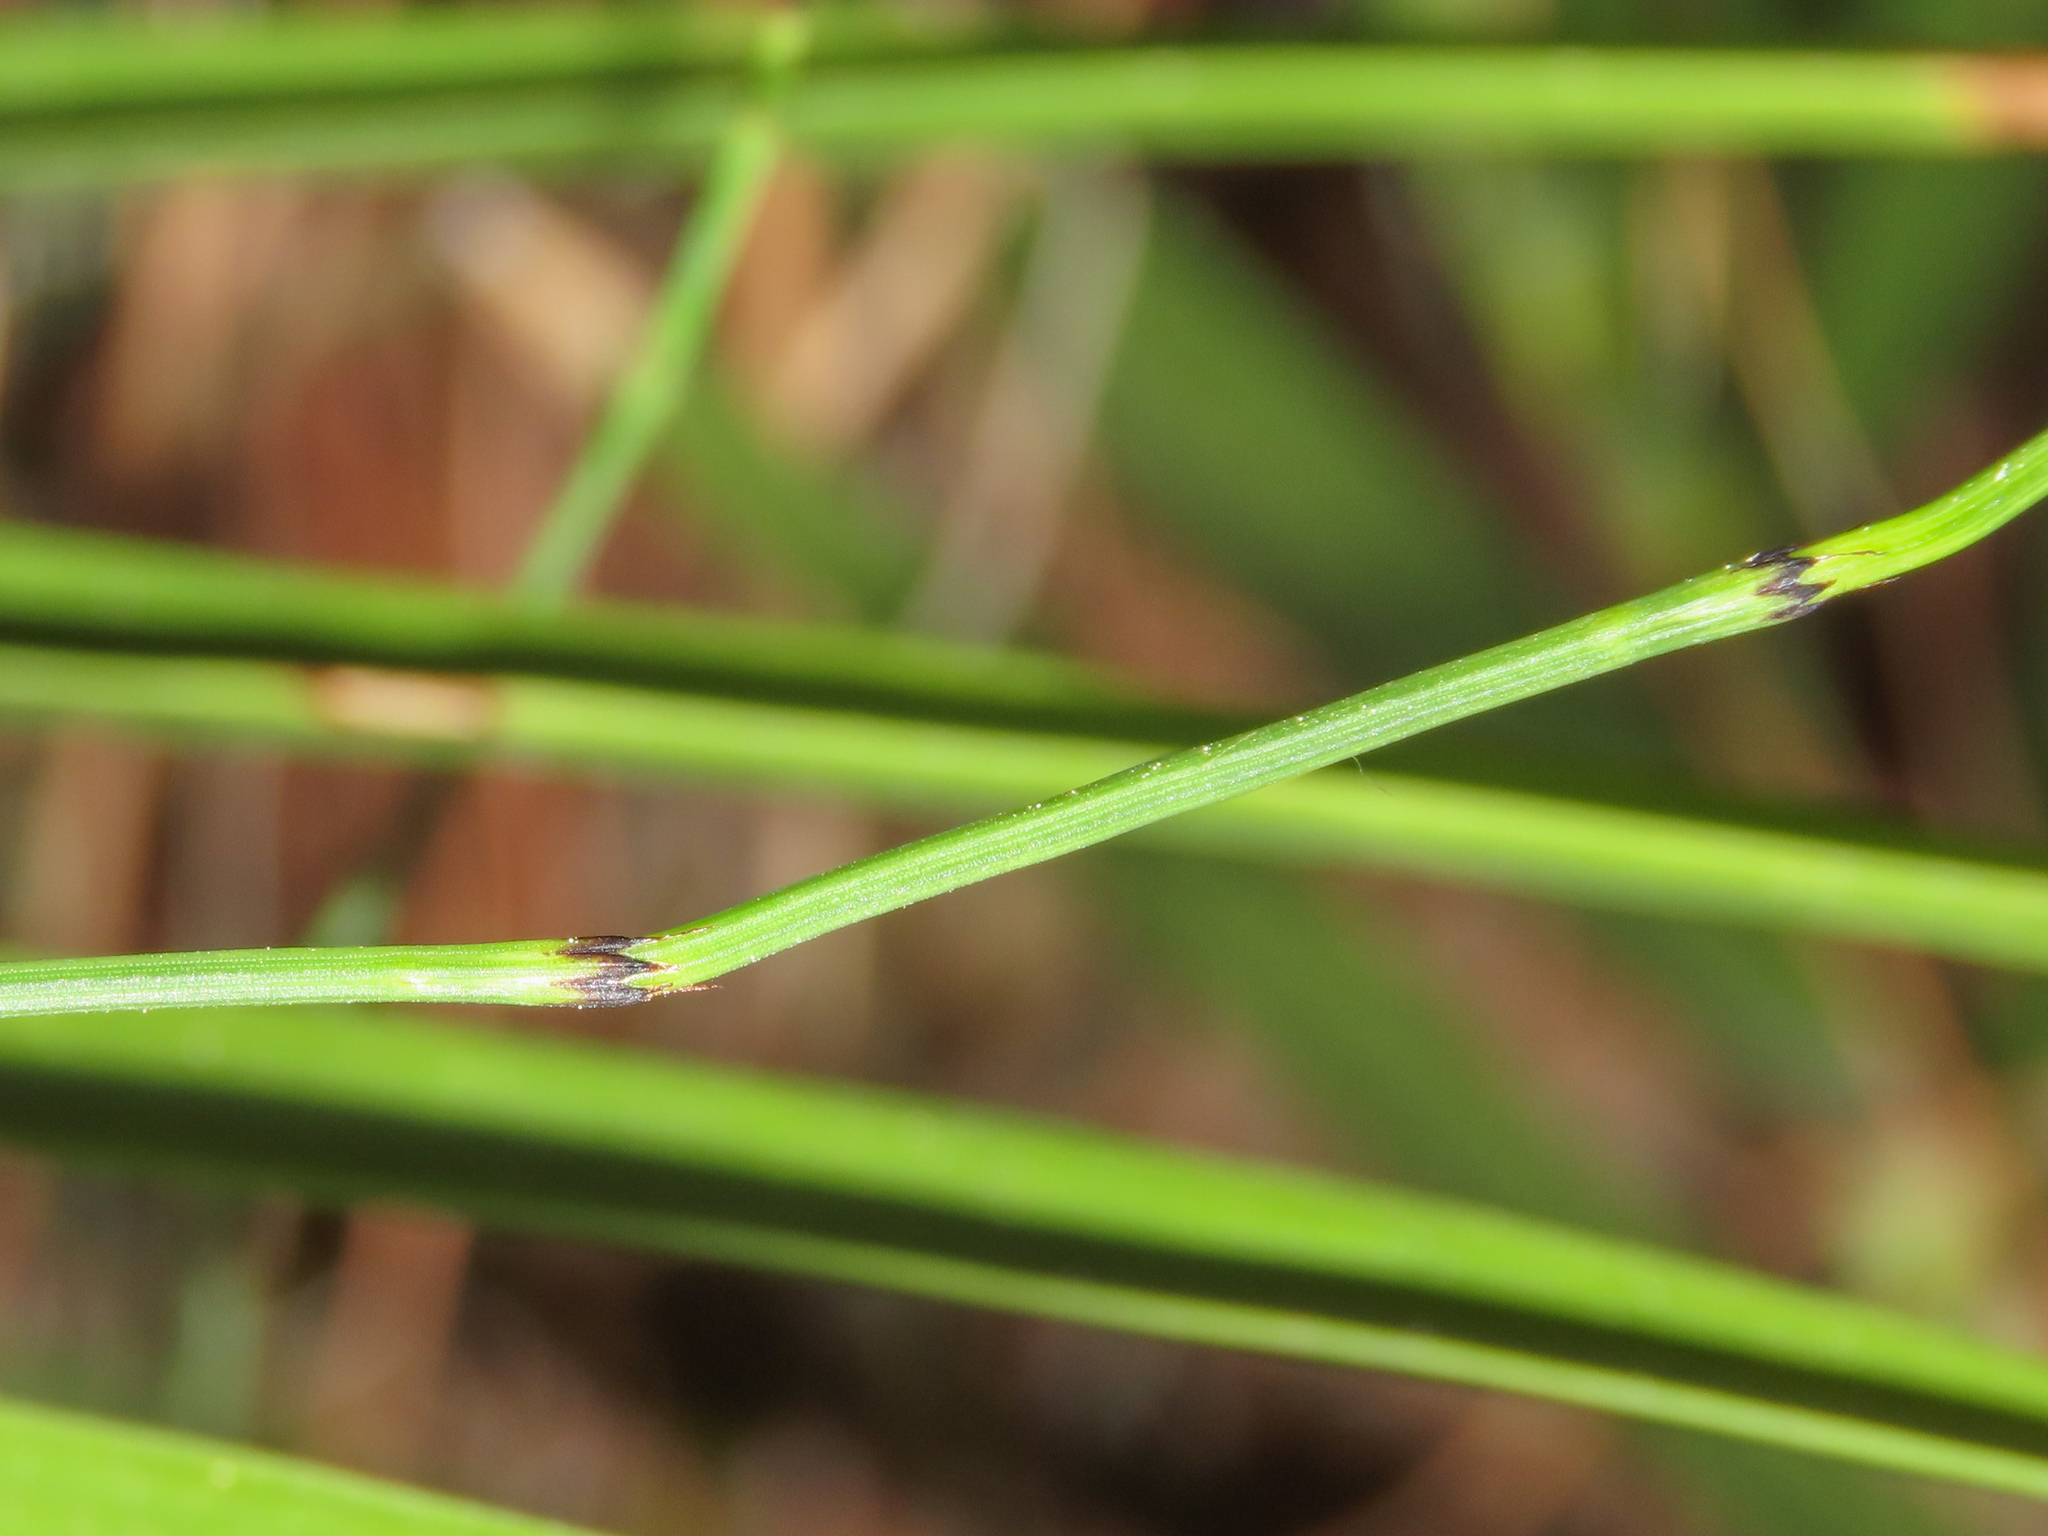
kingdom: Plantae
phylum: Tracheophyta
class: Polypodiopsida
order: Equisetales
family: Equisetaceae
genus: Equisetum
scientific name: Equisetum ramosissimum
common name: Branched horsetail
